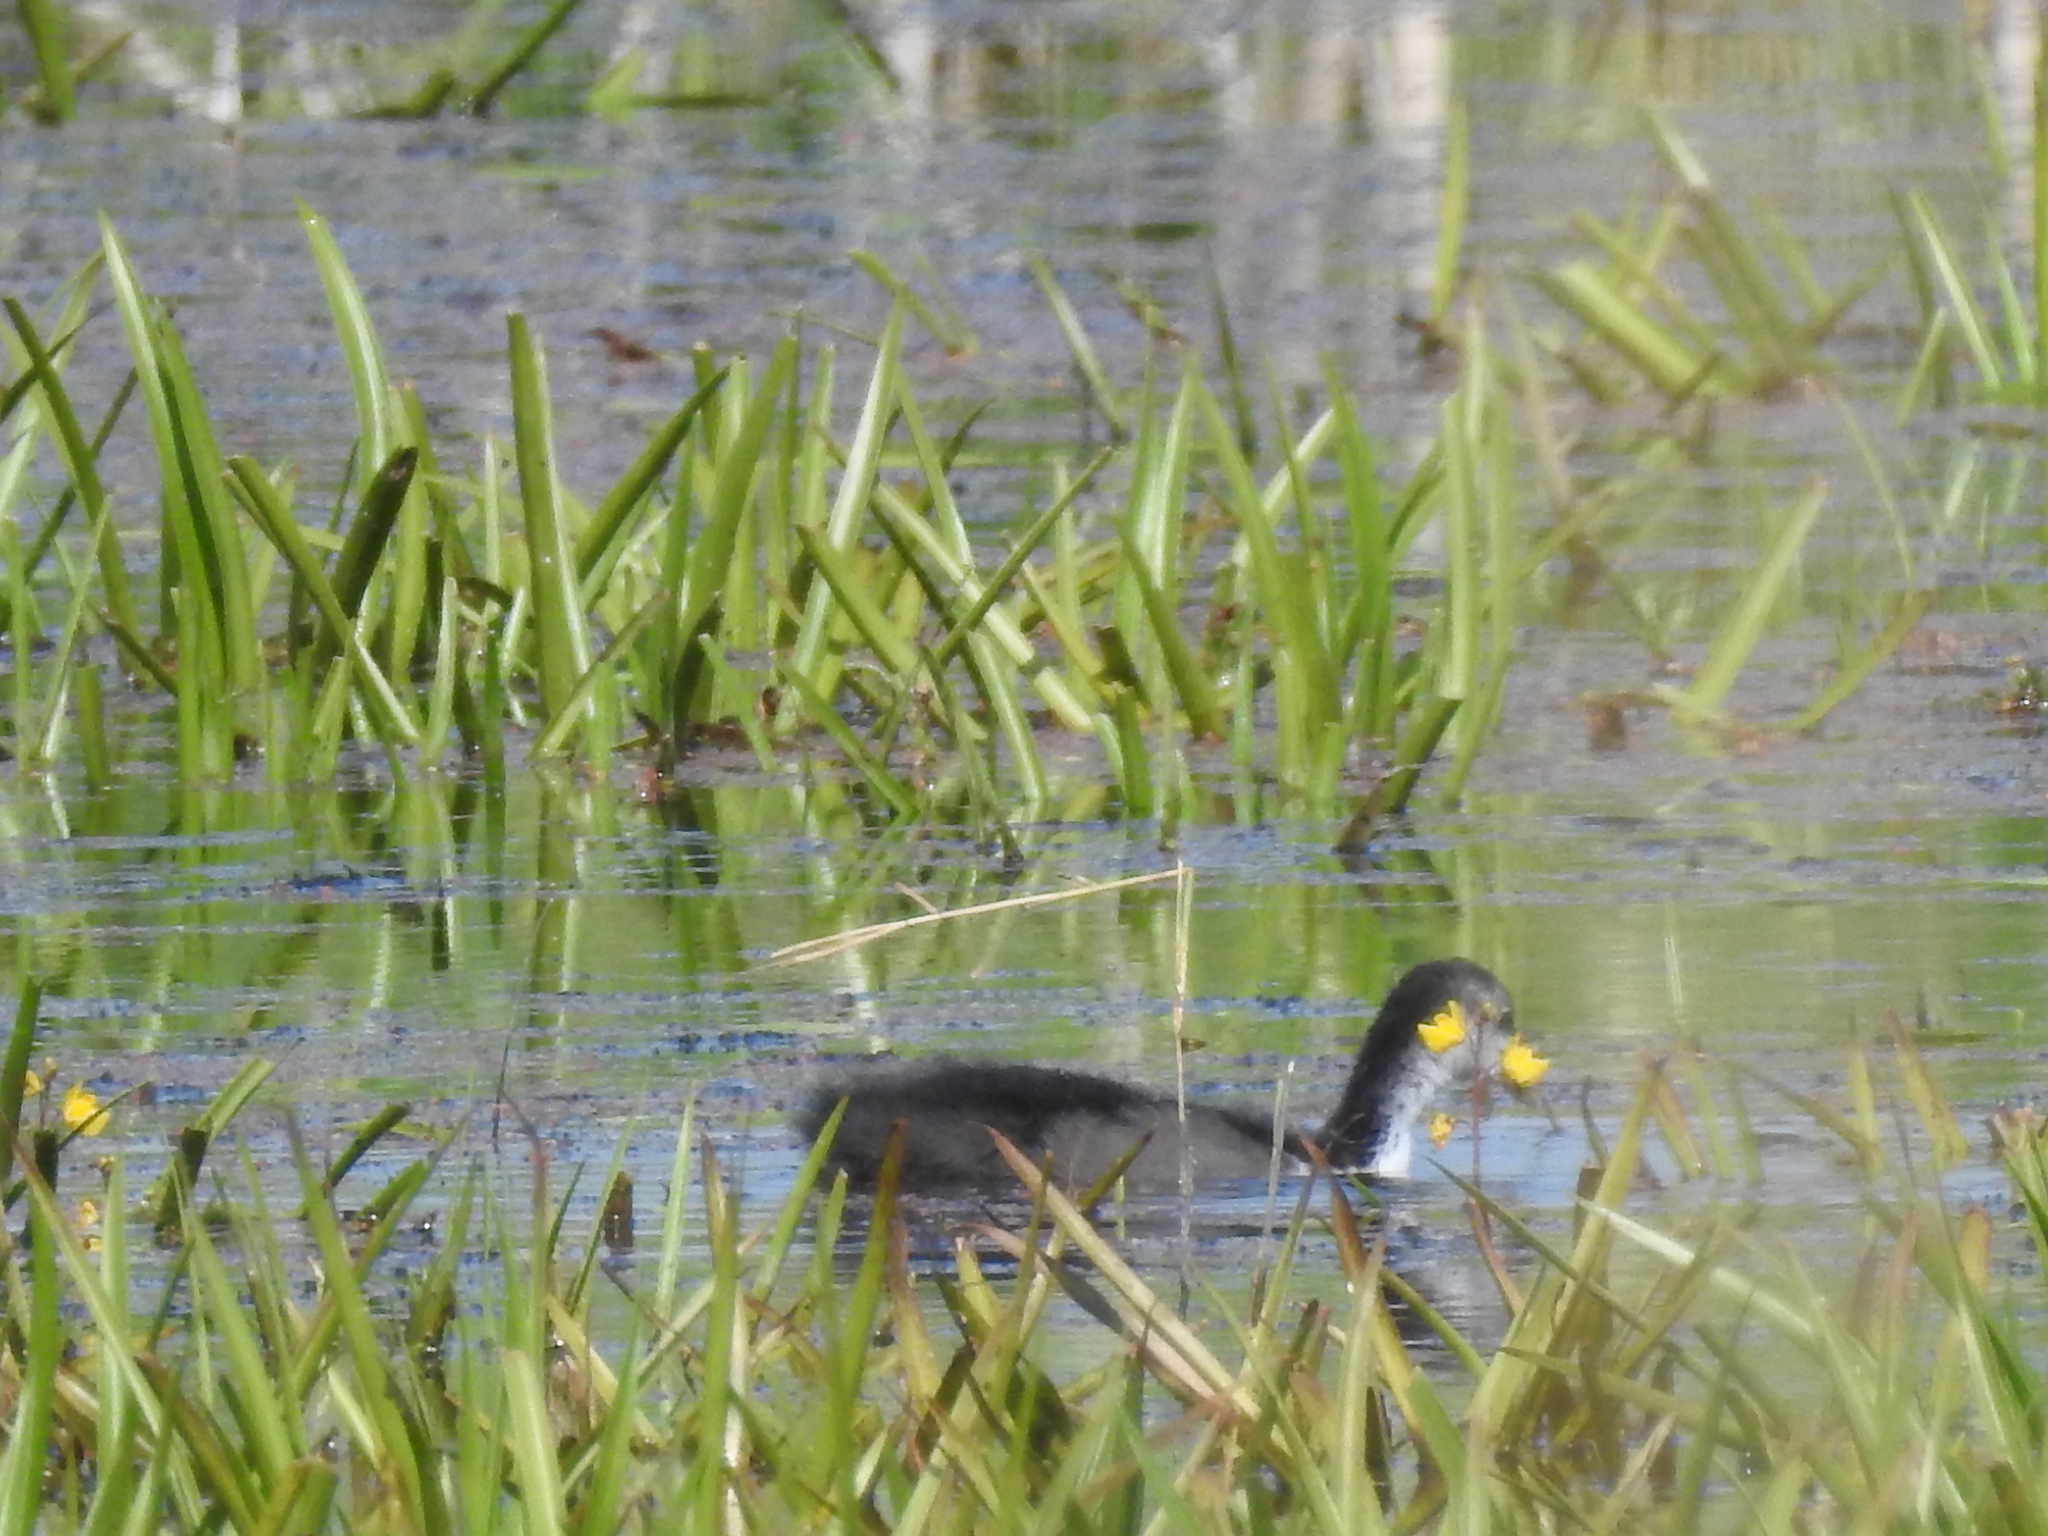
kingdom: Animalia
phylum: Chordata
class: Aves
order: Gruiformes
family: Rallidae
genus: Fulica
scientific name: Fulica atra
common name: Eurasian coot
